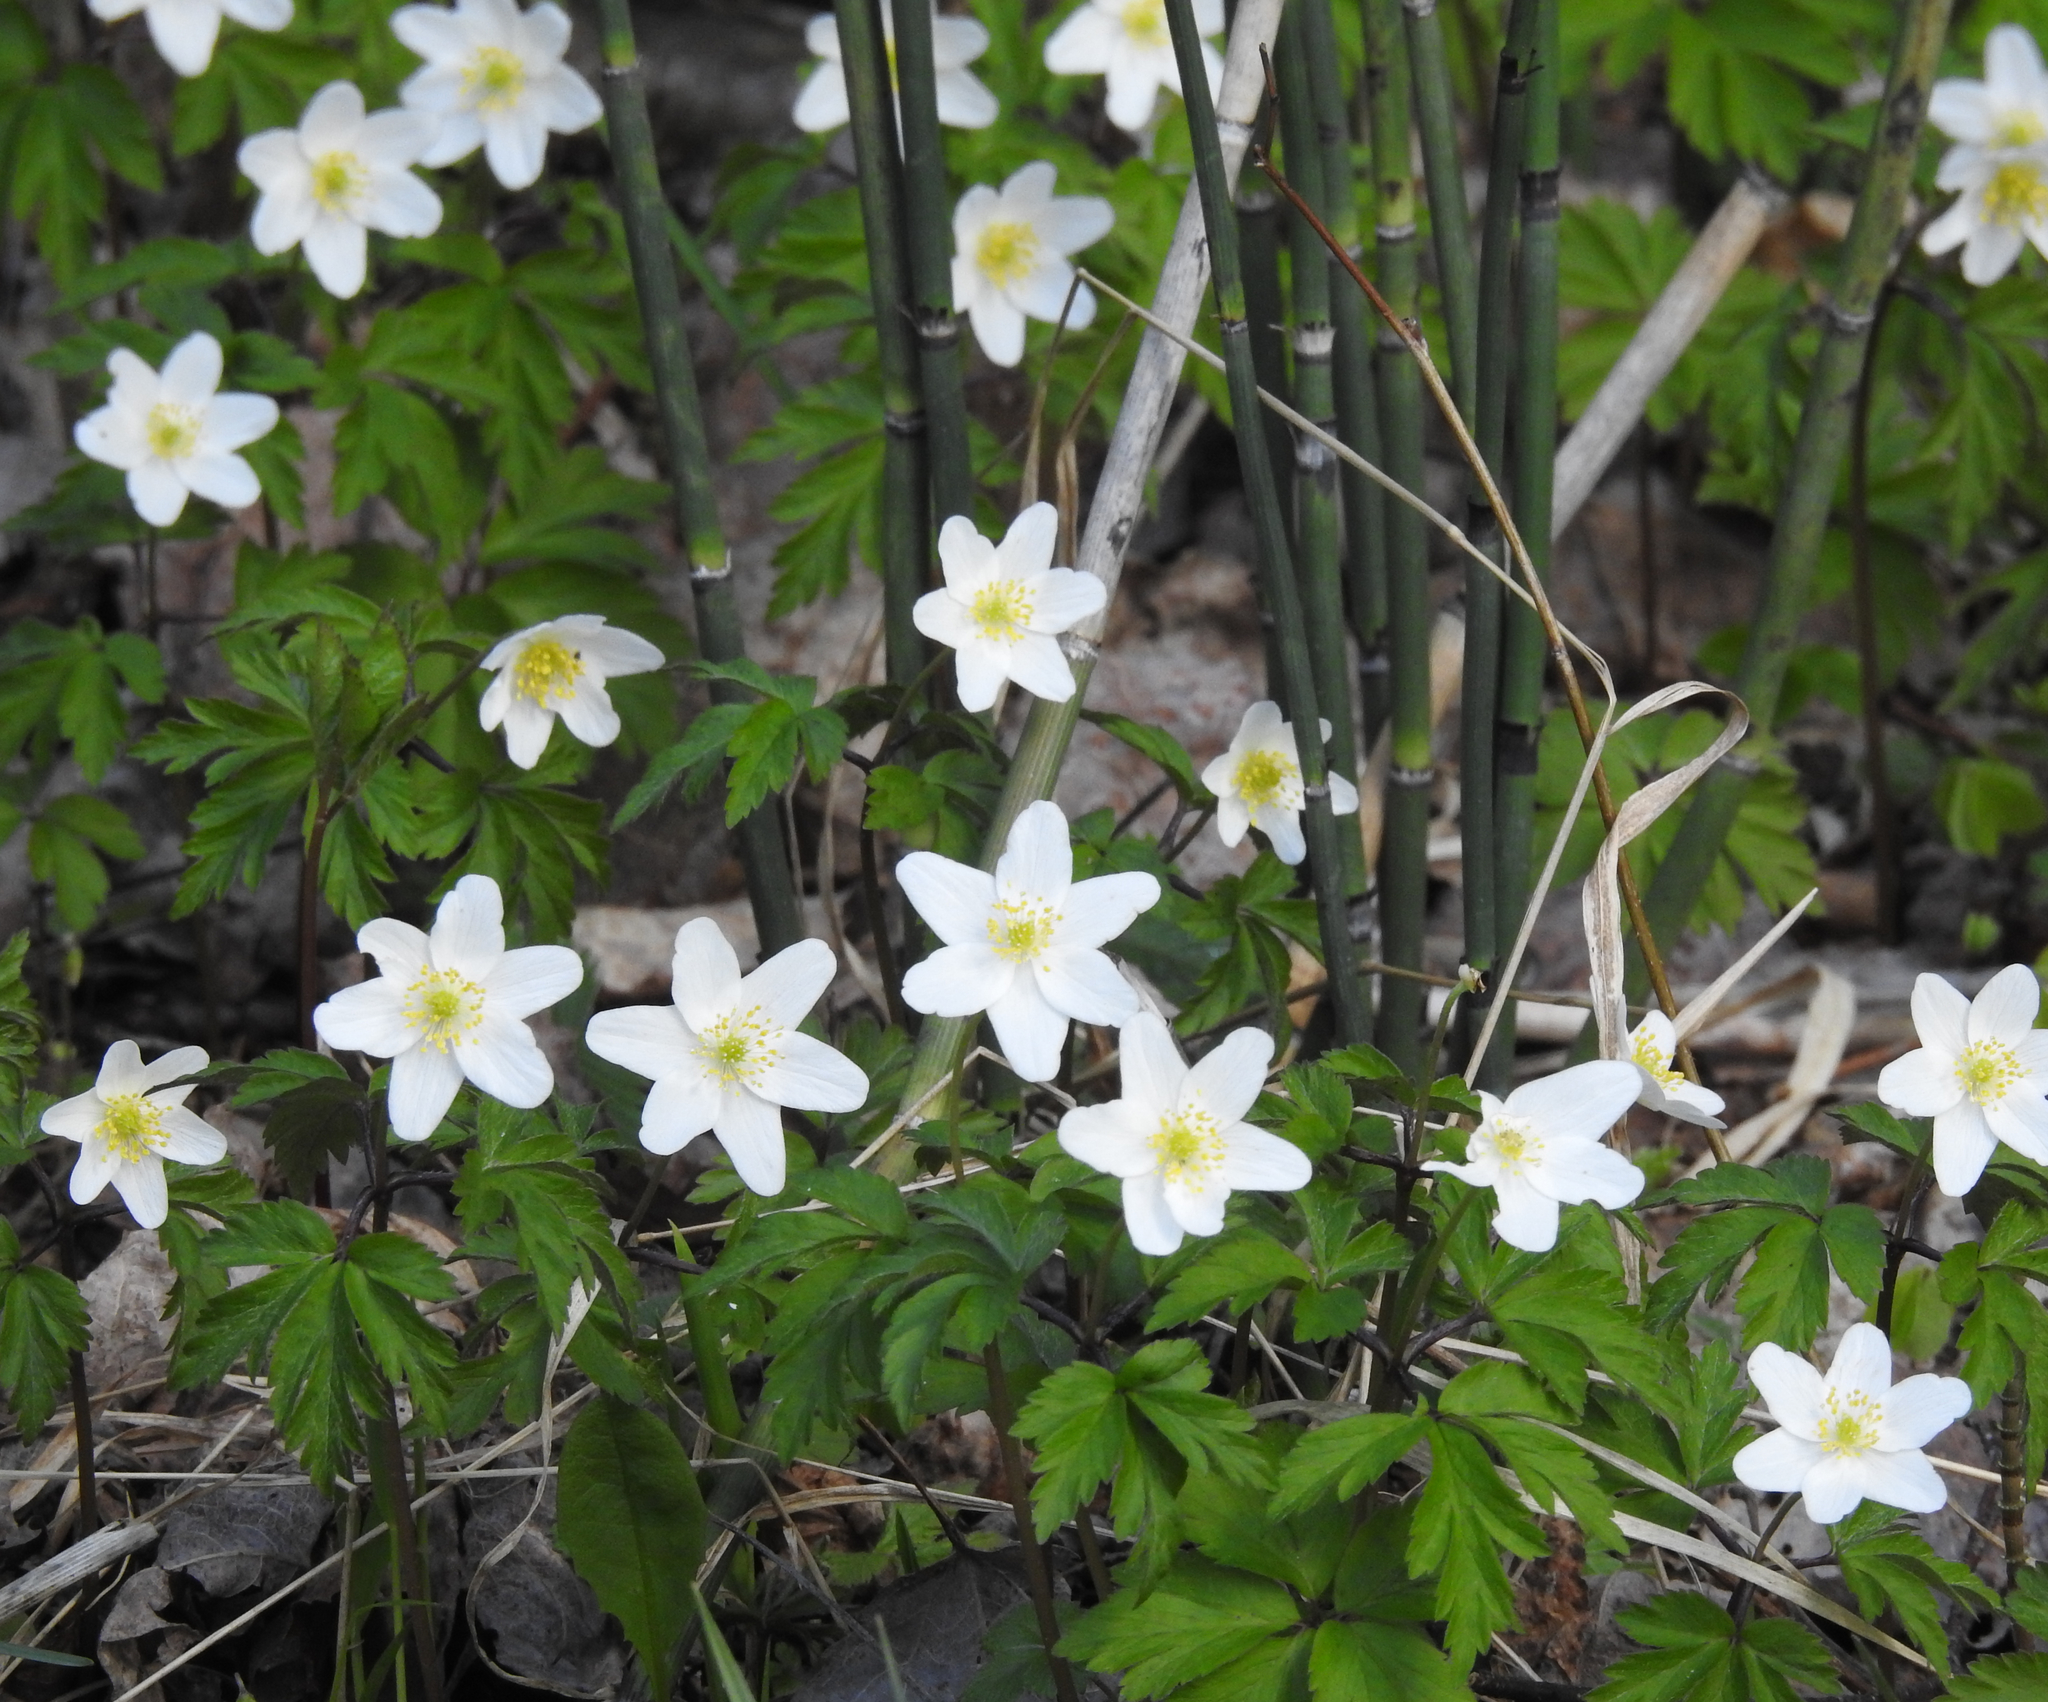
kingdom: Plantae
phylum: Tracheophyta
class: Magnoliopsida
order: Ranunculales
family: Ranunculaceae
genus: Anemone
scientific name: Anemone nemorosa
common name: Wood anemone
